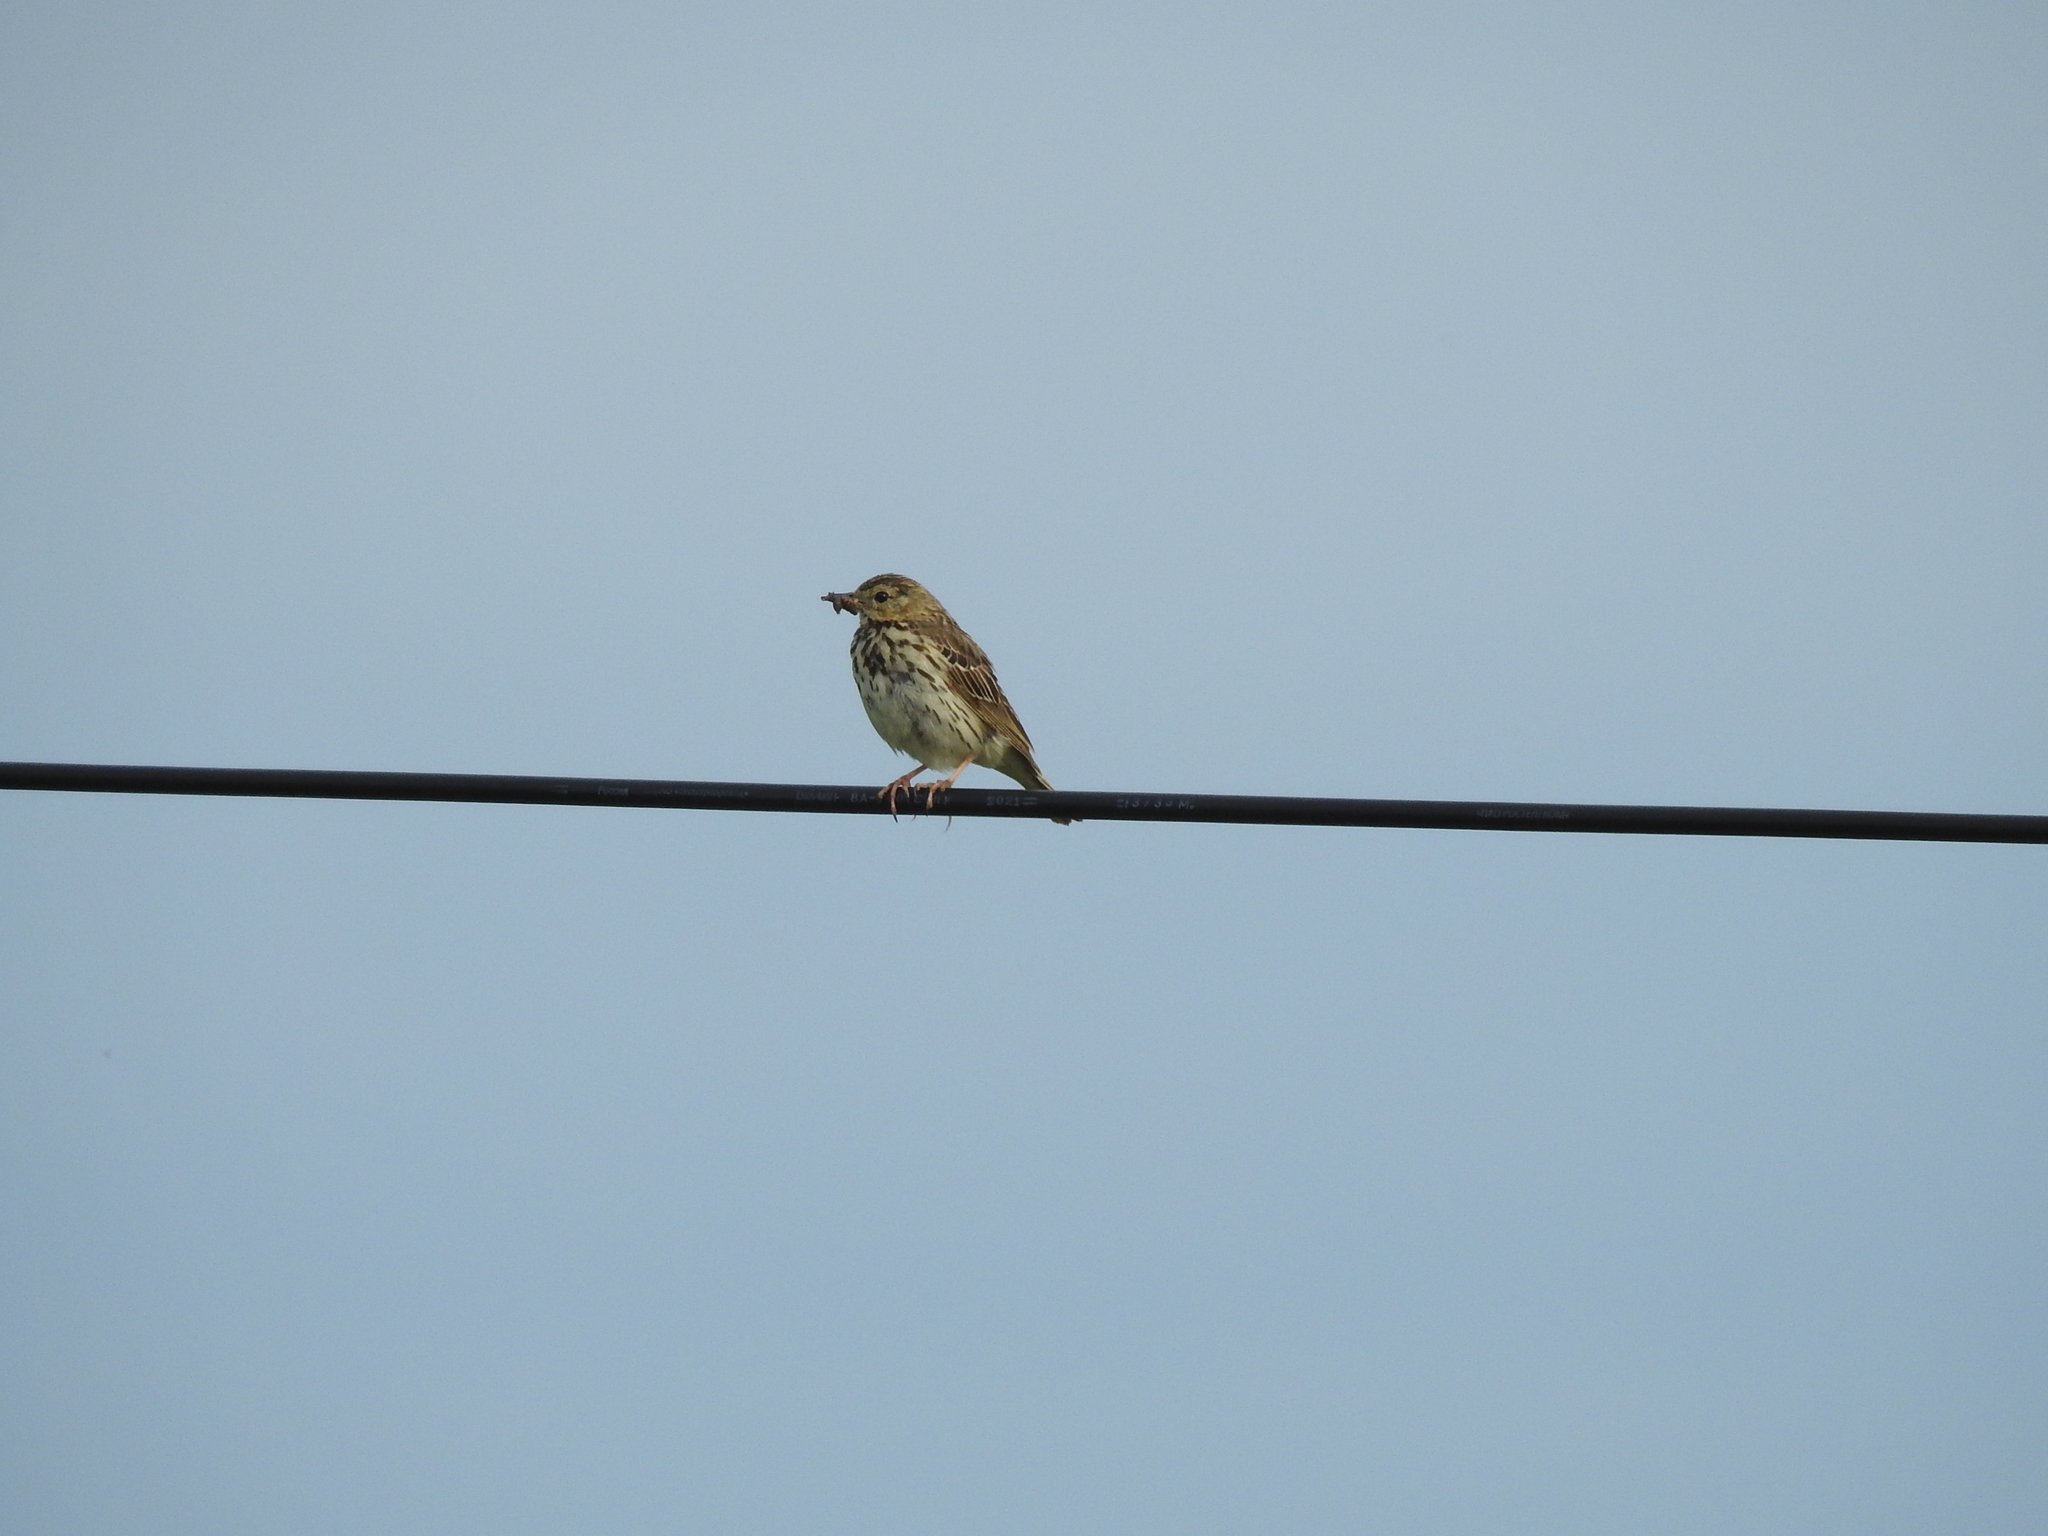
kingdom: Animalia
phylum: Chordata
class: Aves
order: Passeriformes
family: Motacillidae
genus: Anthus
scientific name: Anthus trivialis
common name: Tree pipit
